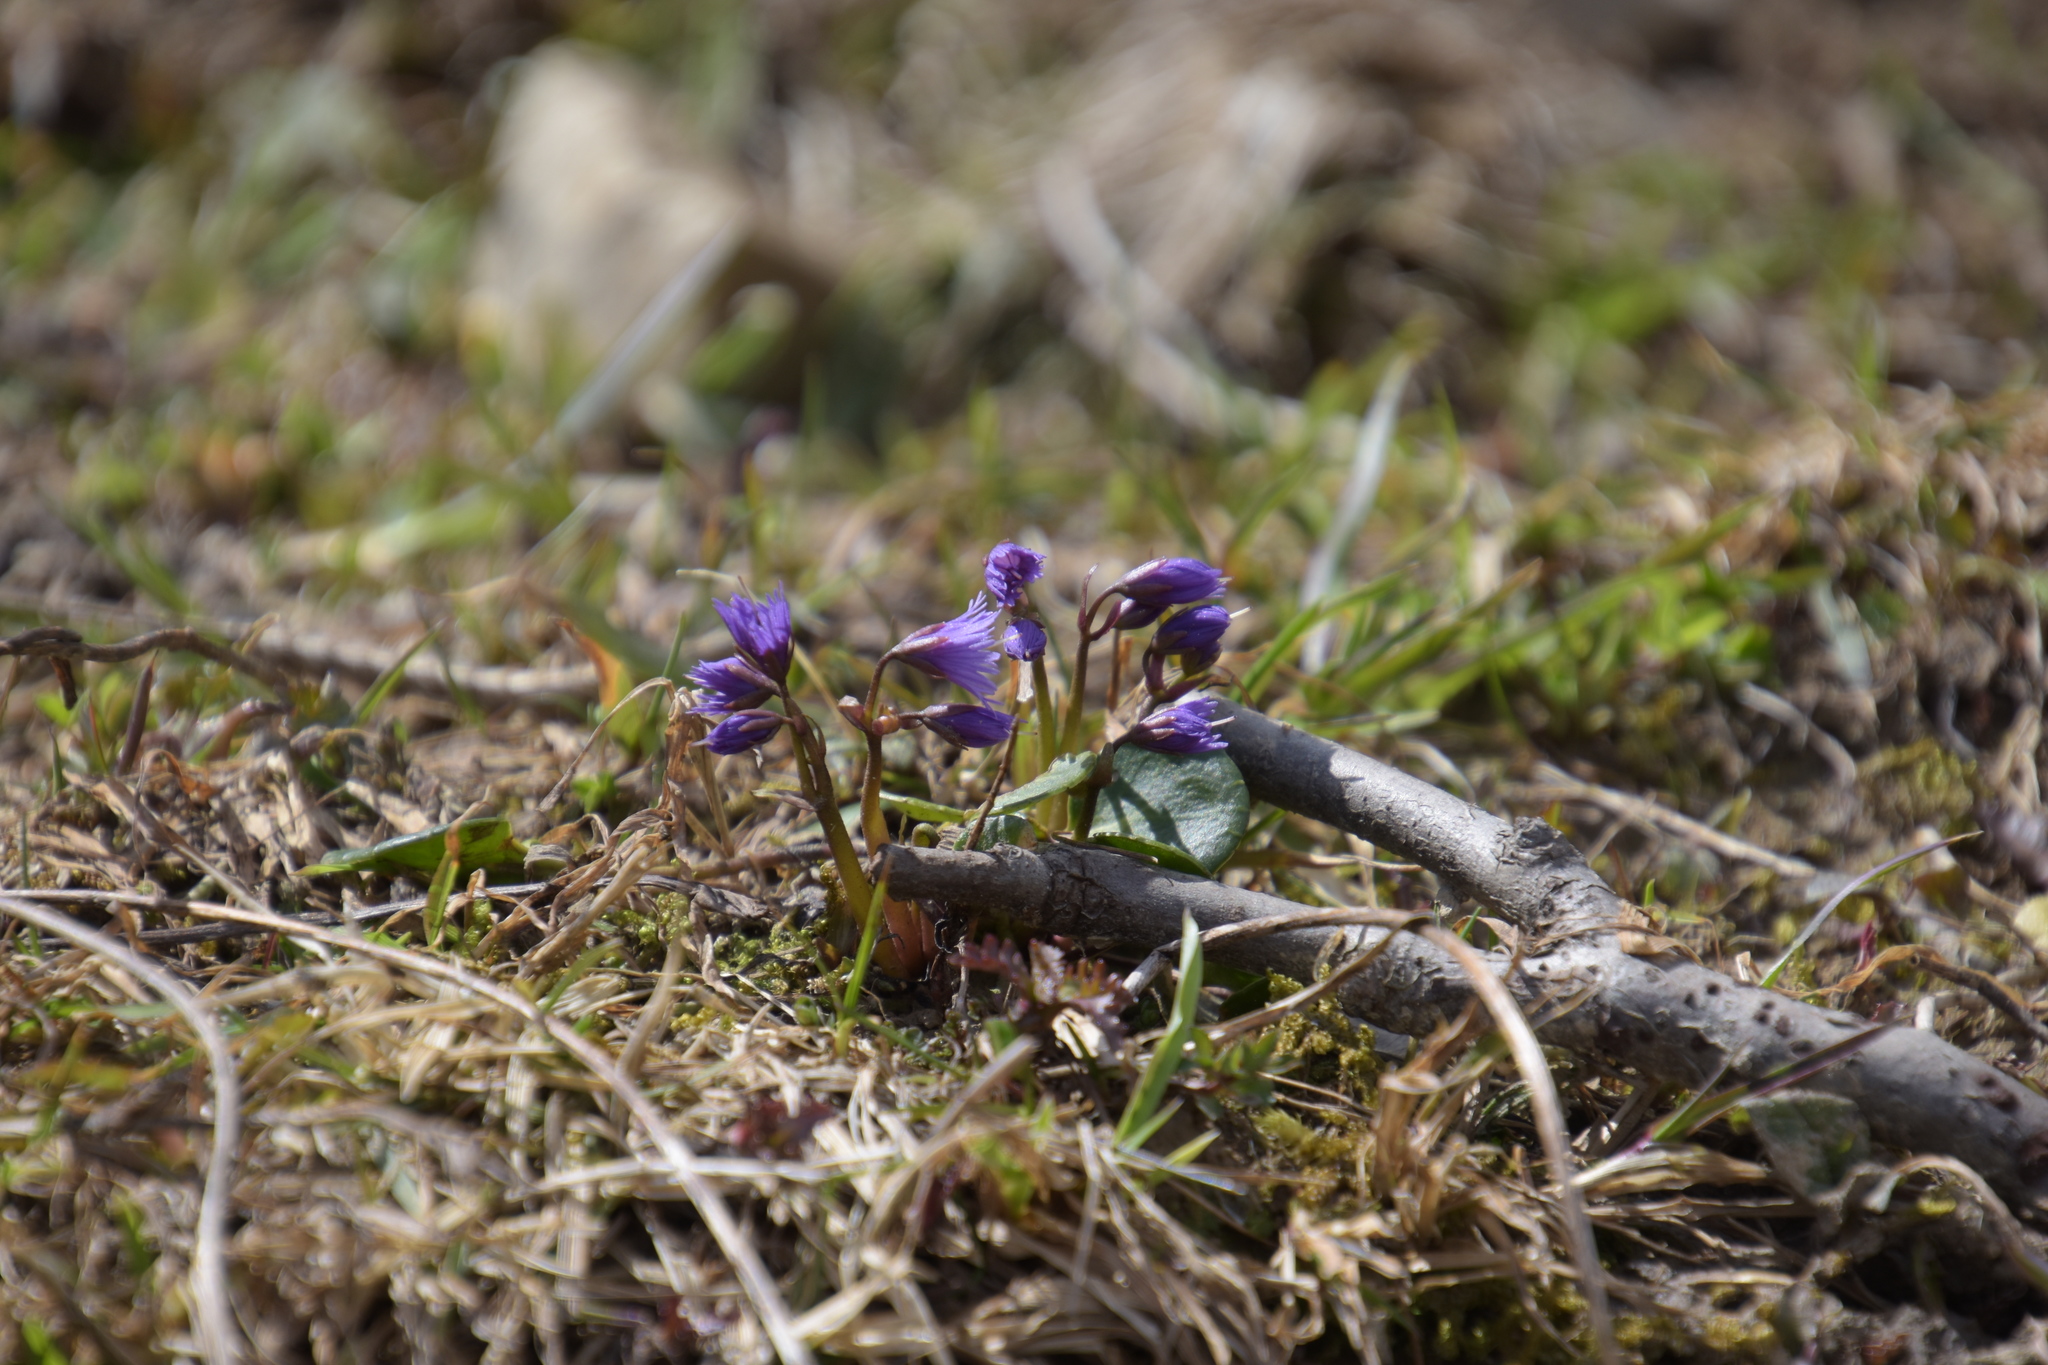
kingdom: Plantae
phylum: Tracheophyta
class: Magnoliopsida
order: Ericales
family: Primulaceae
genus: Soldanella
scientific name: Soldanella alpina
